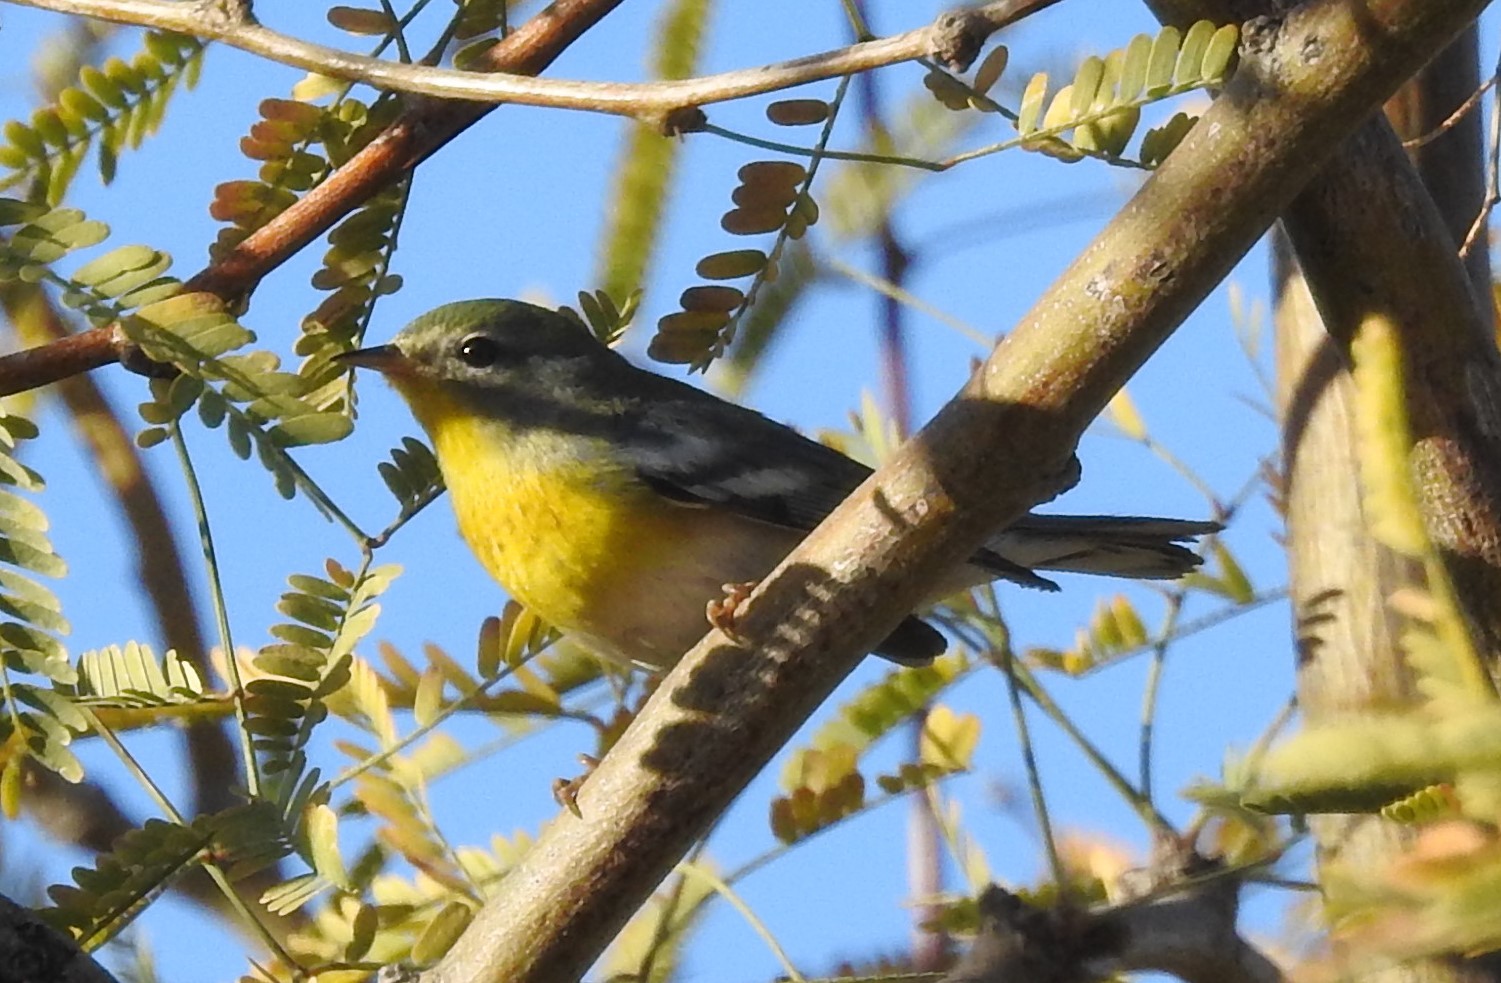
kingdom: Animalia
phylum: Chordata
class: Aves
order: Passeriformes
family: Parulidae
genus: Setophaga
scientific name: Setophaga americana
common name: Northern parula
